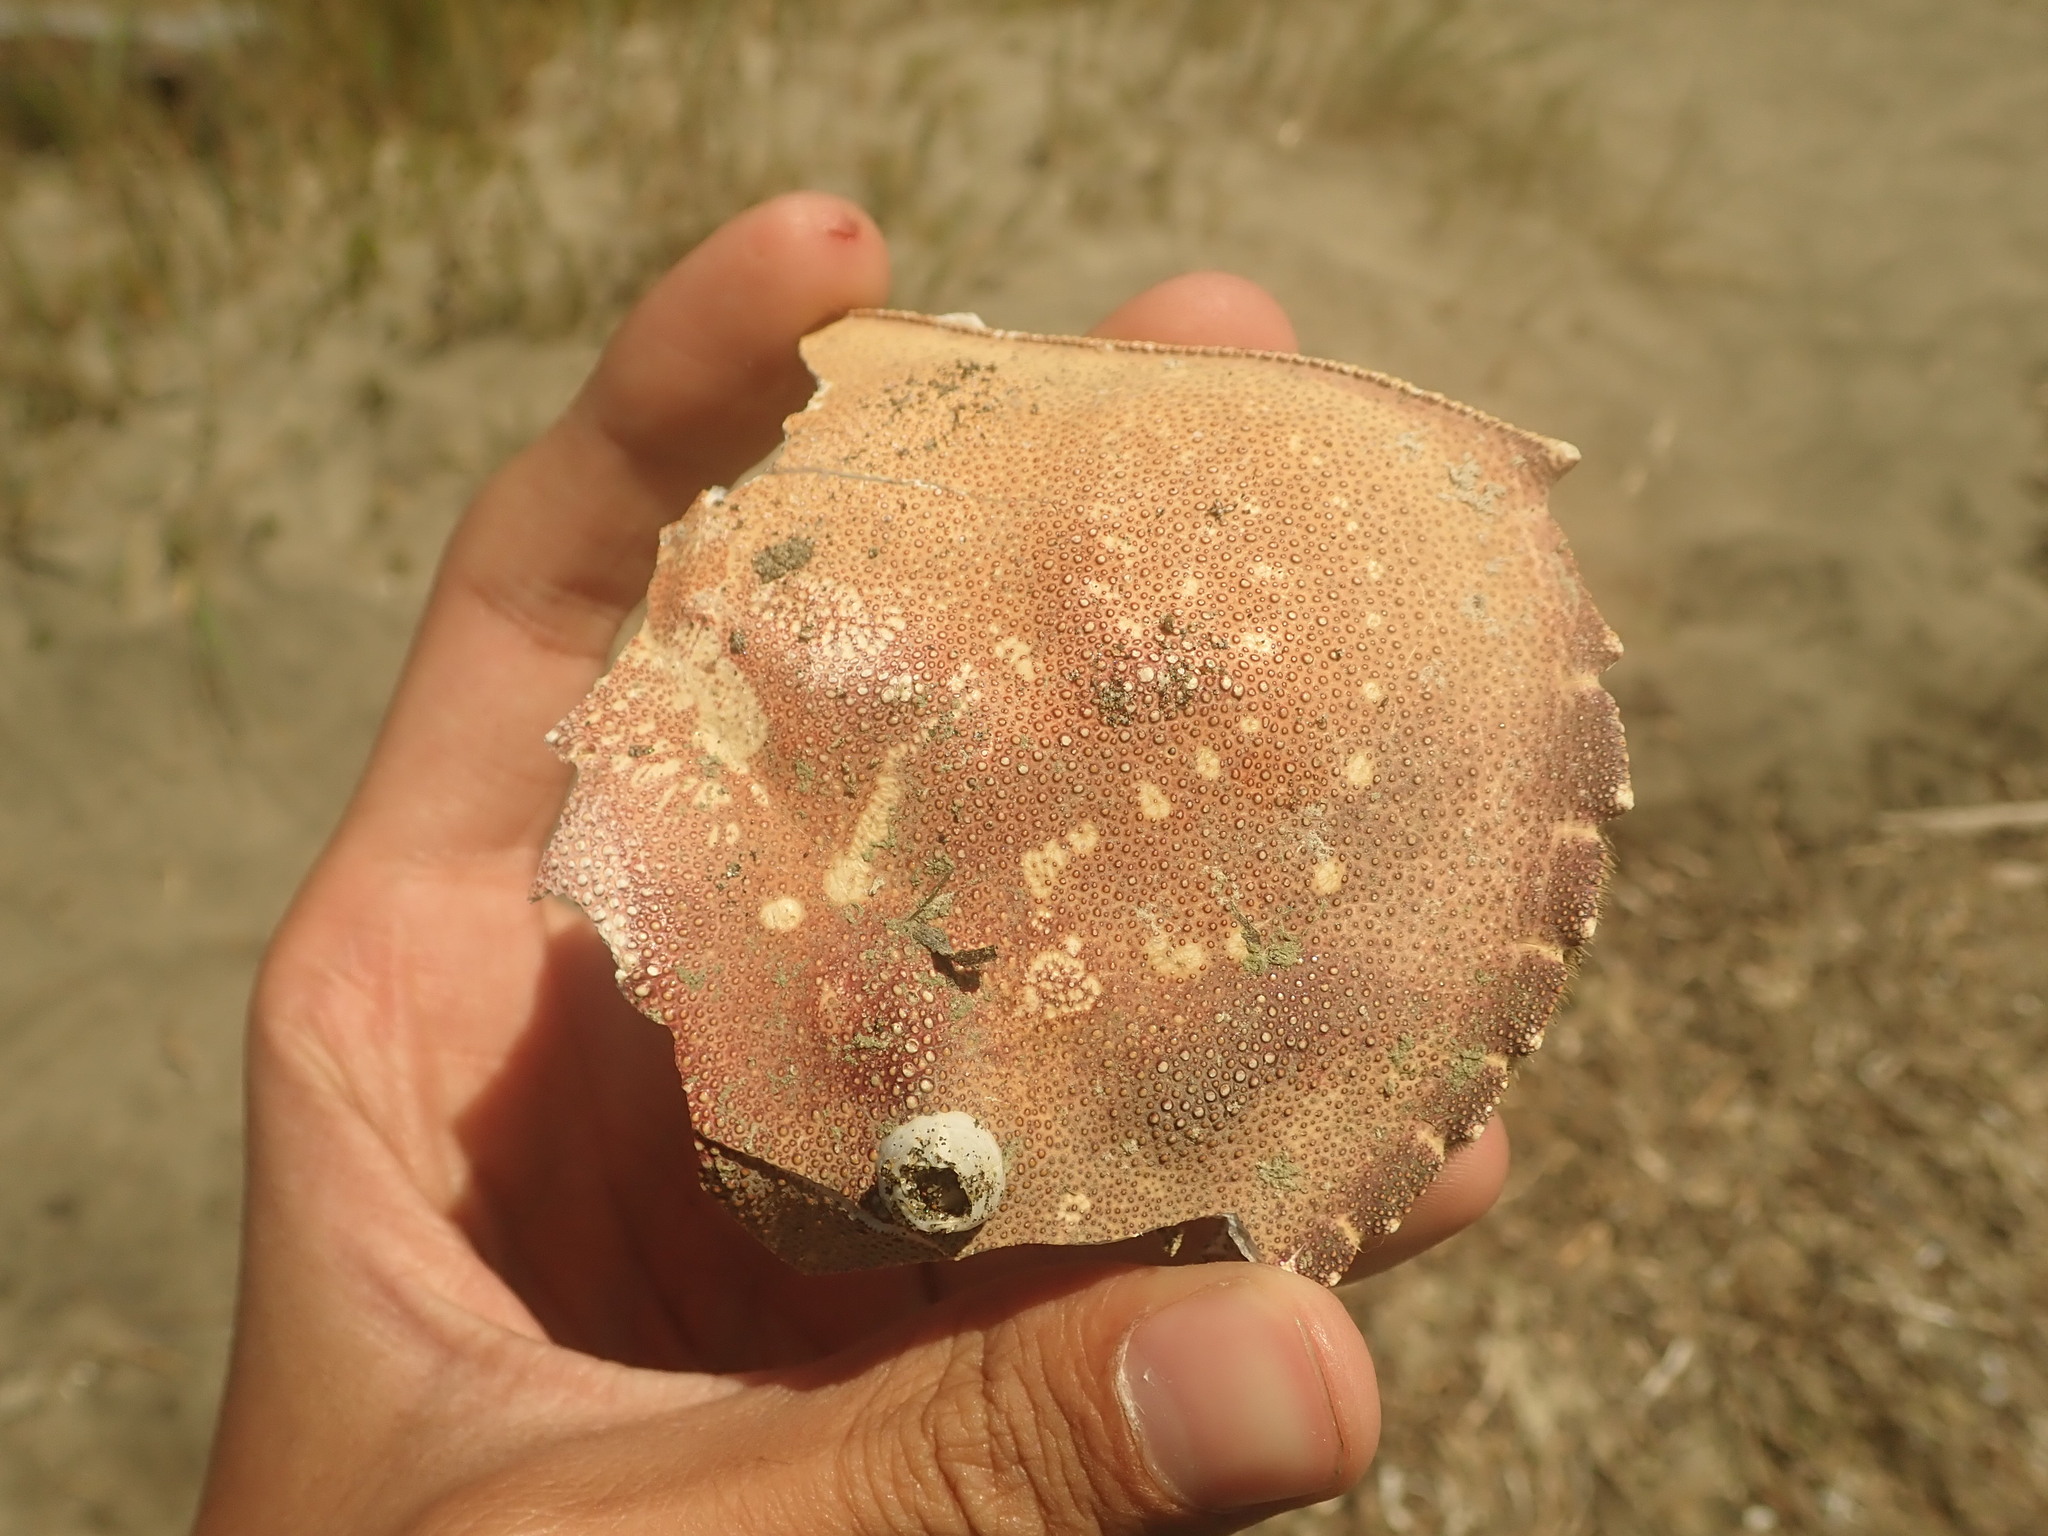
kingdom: Animalia
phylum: Arthropoda
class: Malacostraca
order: Decapoda
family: Cancridae
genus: Metacarcinus
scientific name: Metacarcinus magister
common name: Californian crab
